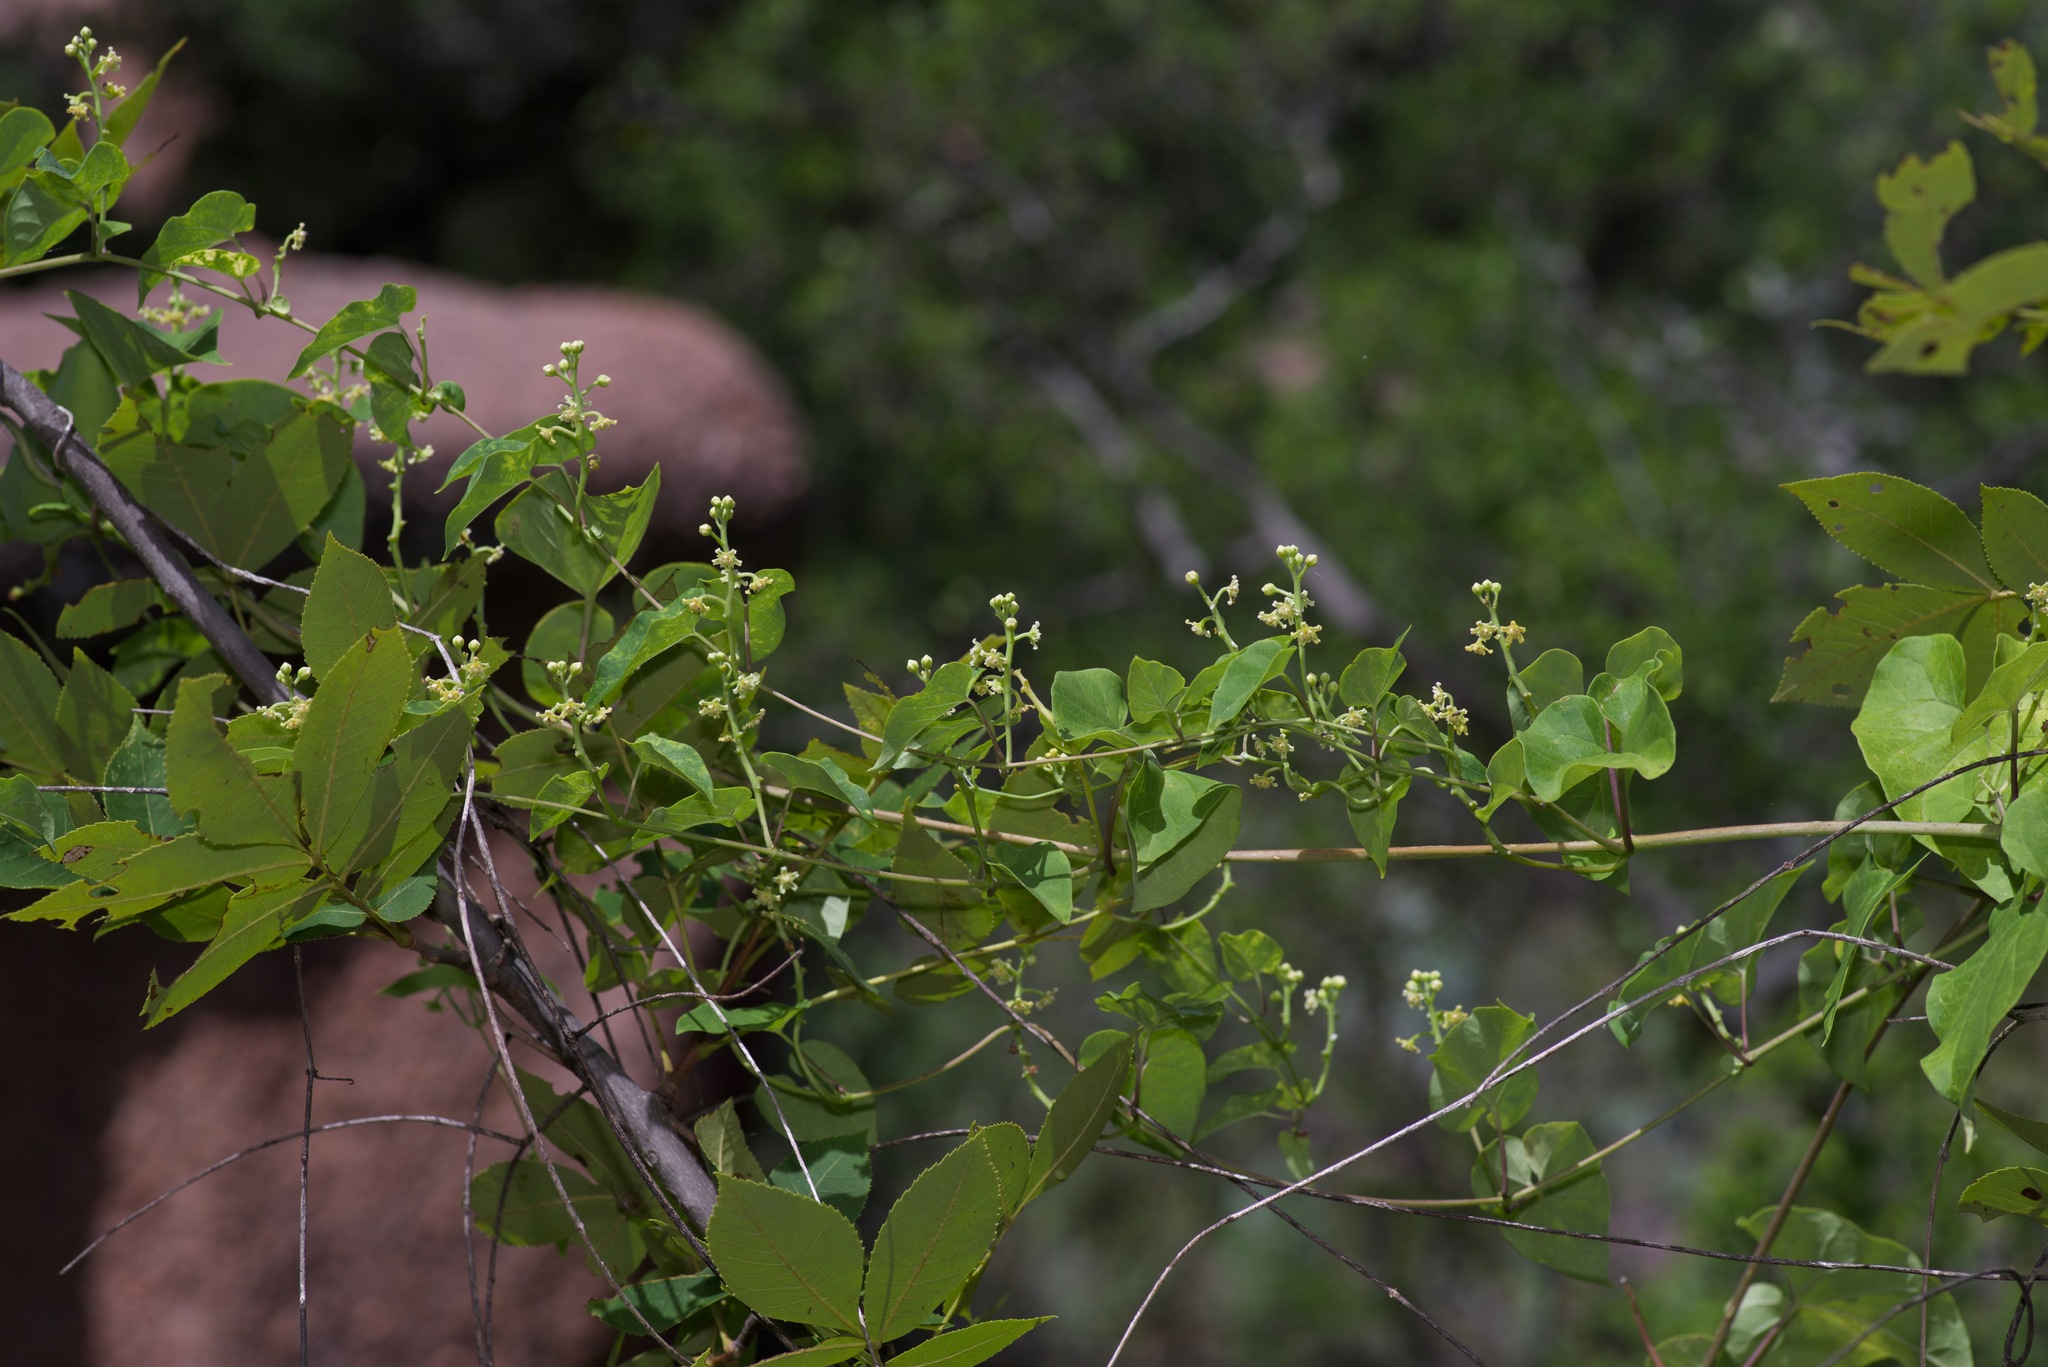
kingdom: Plantae
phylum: Tracheophyta
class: Magnoliopsida
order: Gentianales
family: Apocynaceae
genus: Cynanchum
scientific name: Cynanchum racemosum
